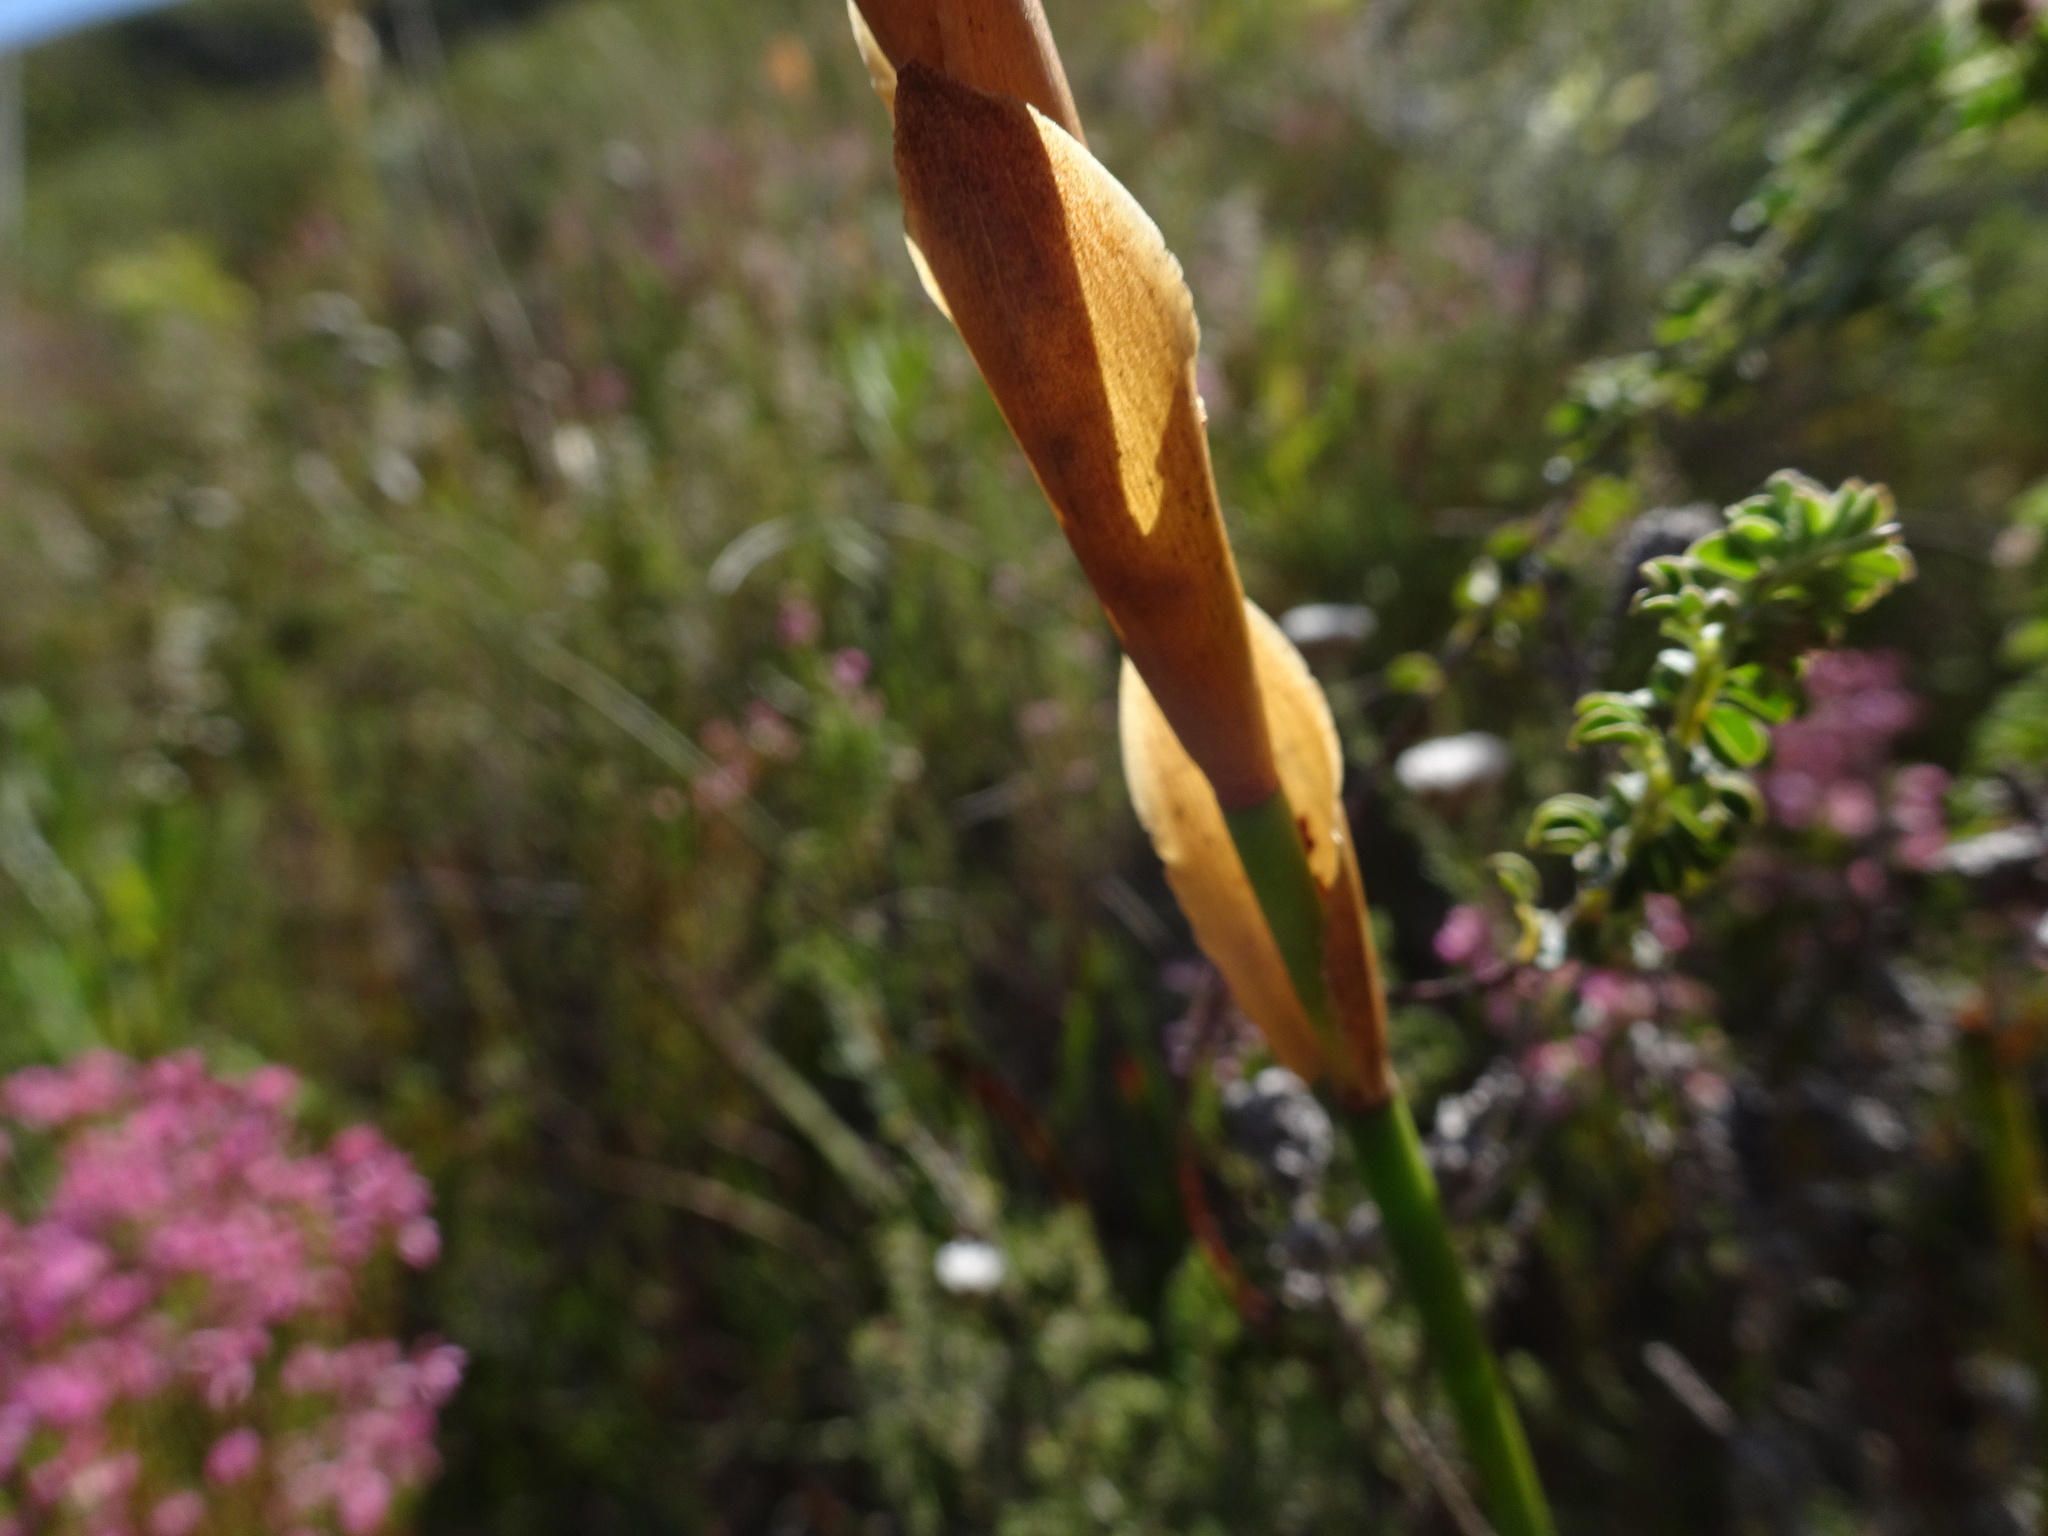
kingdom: Plantae
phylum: Tracheophyta
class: Liliopsida
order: Poales
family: Restionaceae
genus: Elegia
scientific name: Elegia persistens
